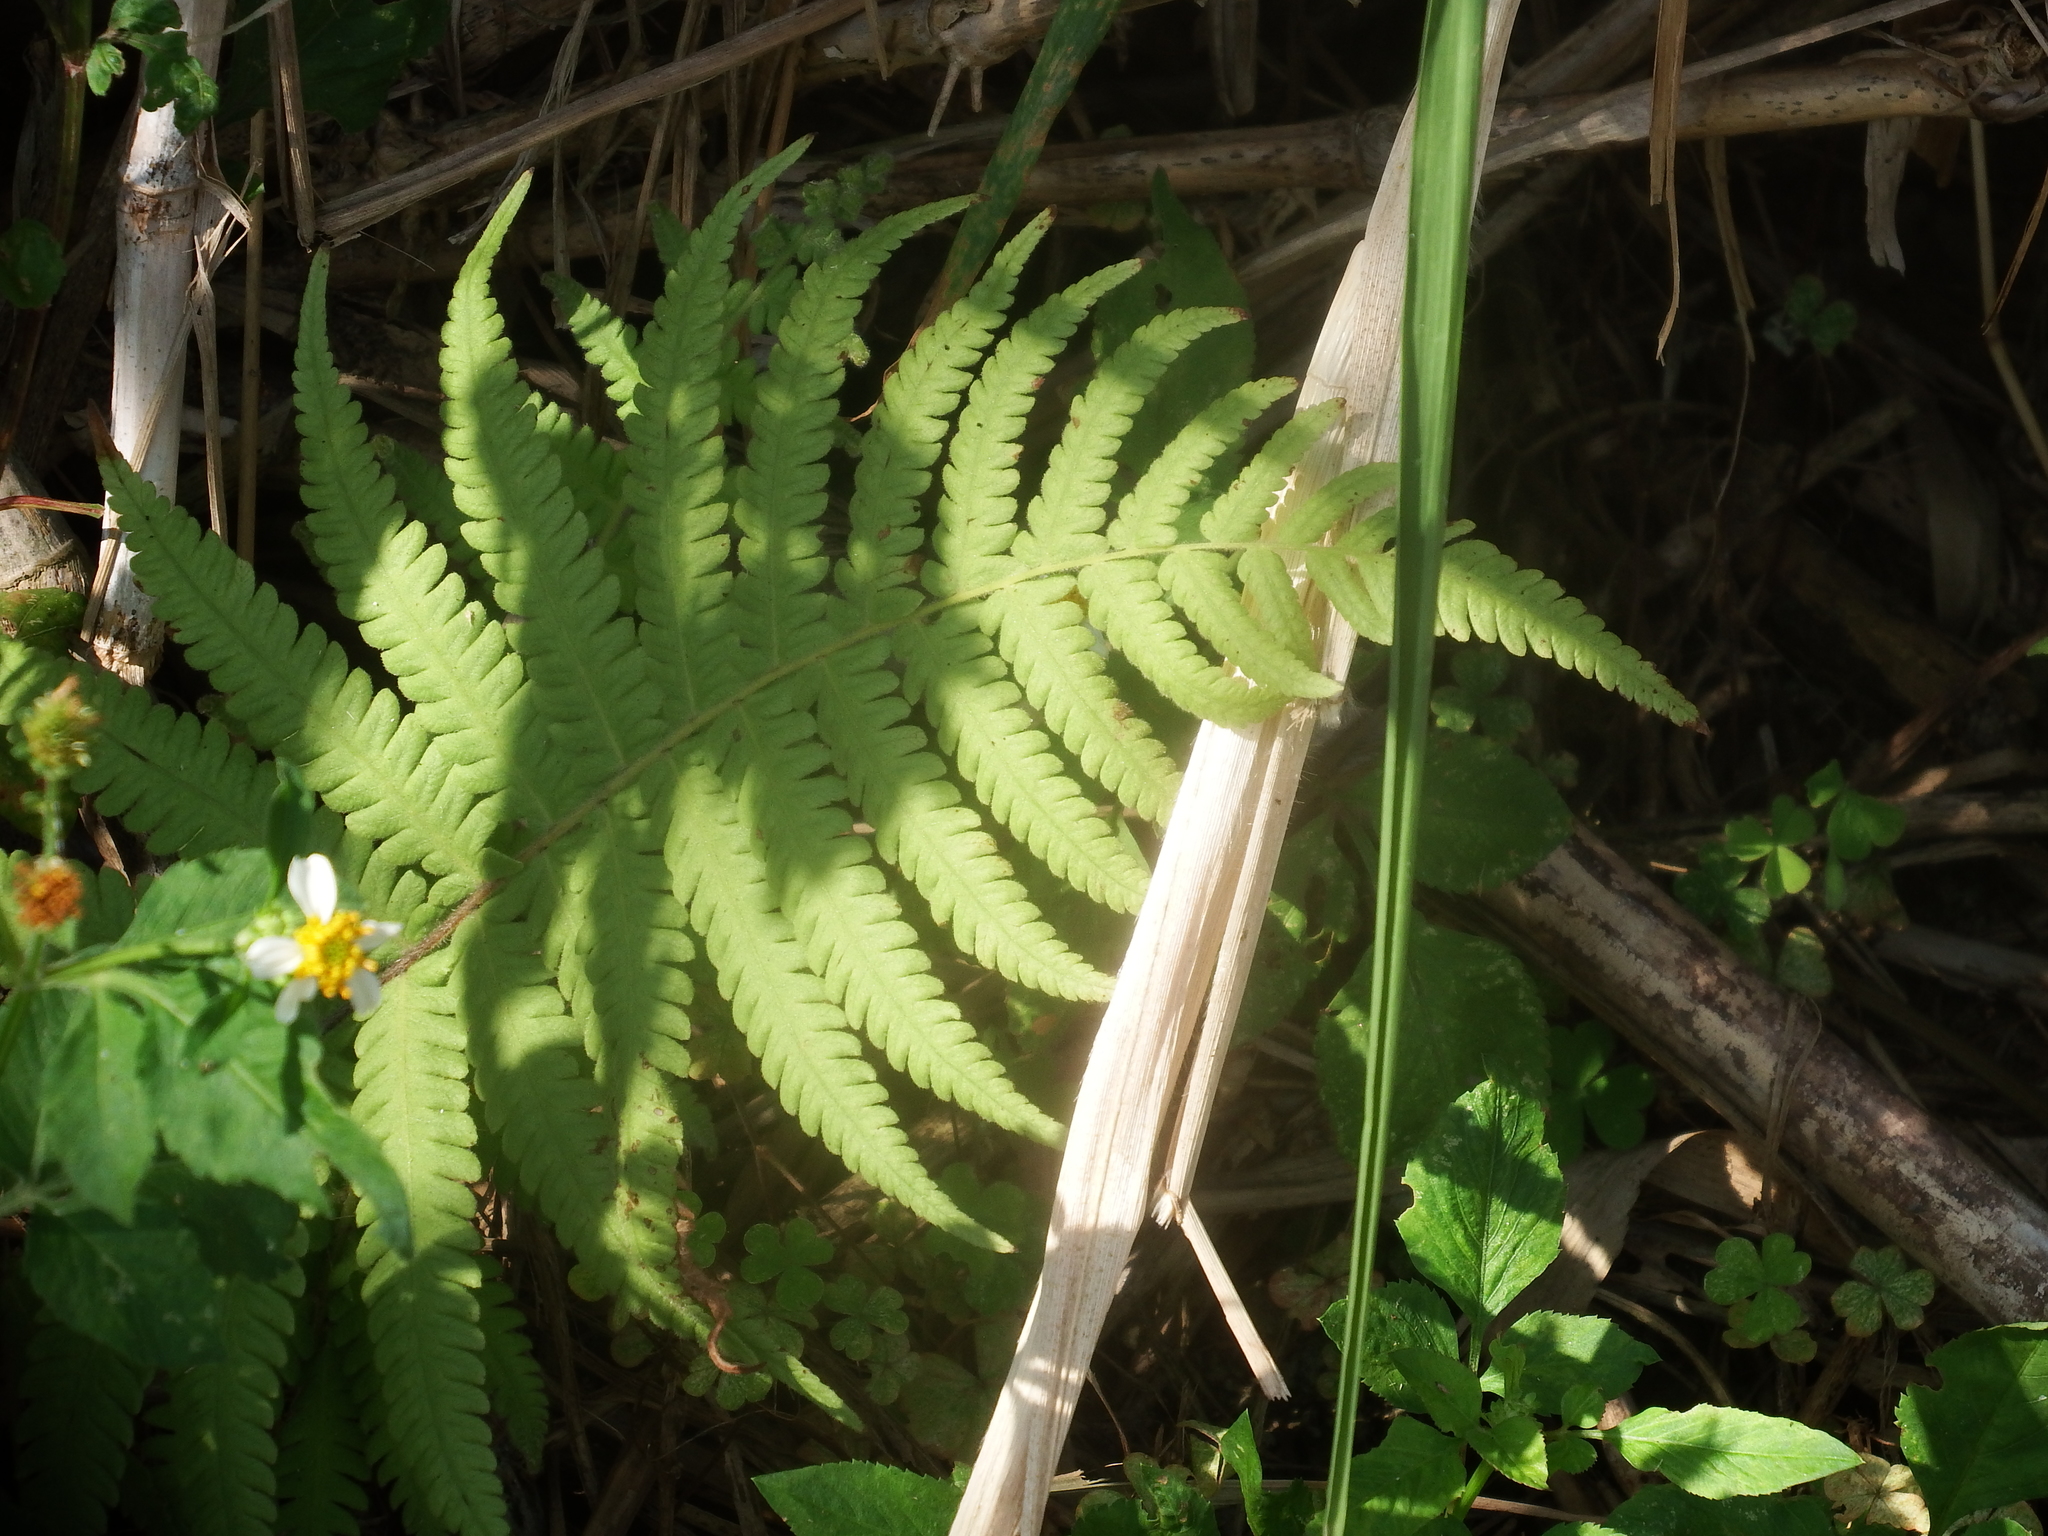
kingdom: Plantae
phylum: Tracheophyta
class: Polypodiopsida
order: Polypodiales
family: Thelypteridaceae
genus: Christella
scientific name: Christella parasitica
